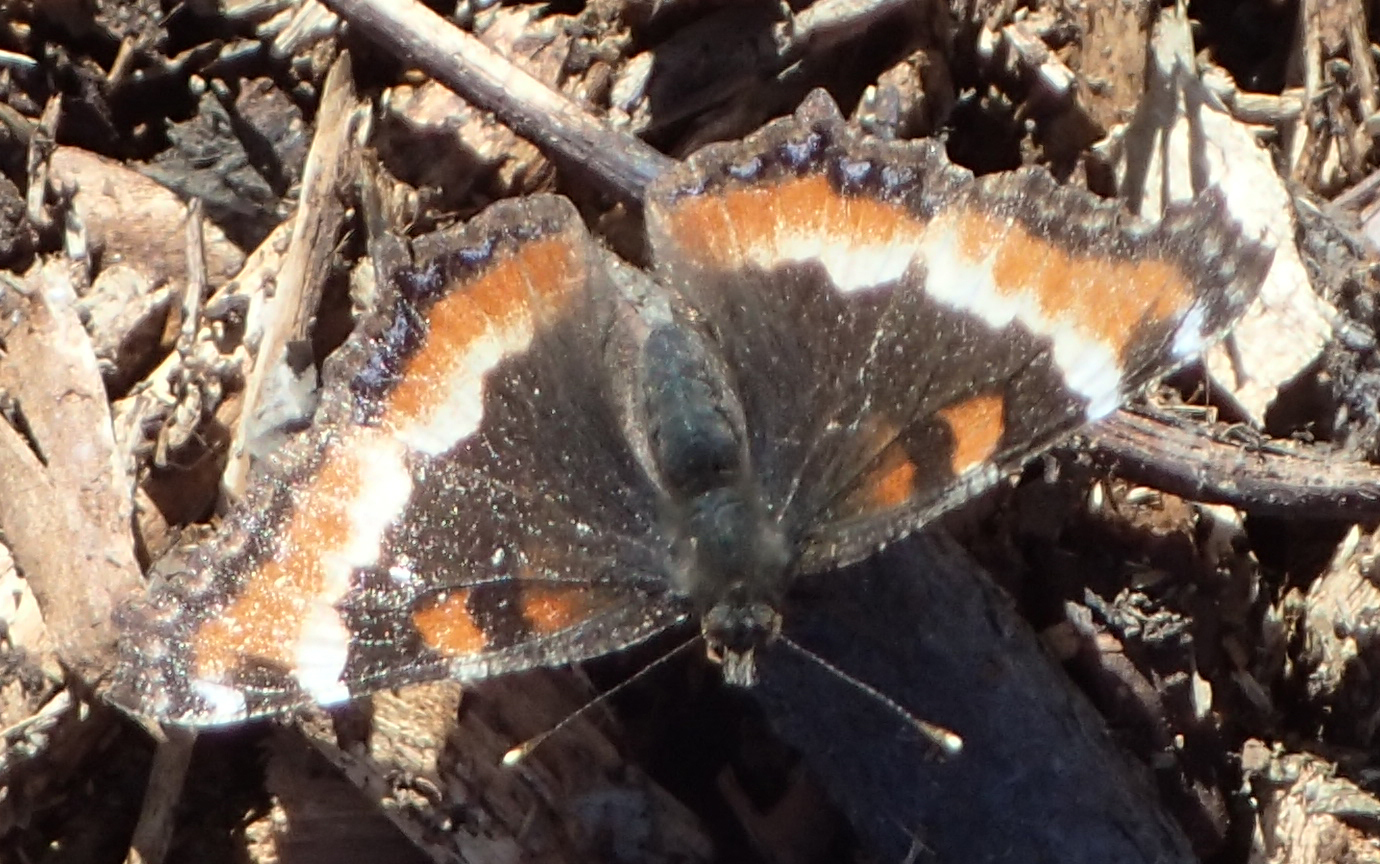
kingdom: Animalia
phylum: Arthropoda
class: Insecta
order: Lepidoptera
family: Nymphalidae
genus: Aglais
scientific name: Aglais milberti
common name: Milbert's tortoiseshell
